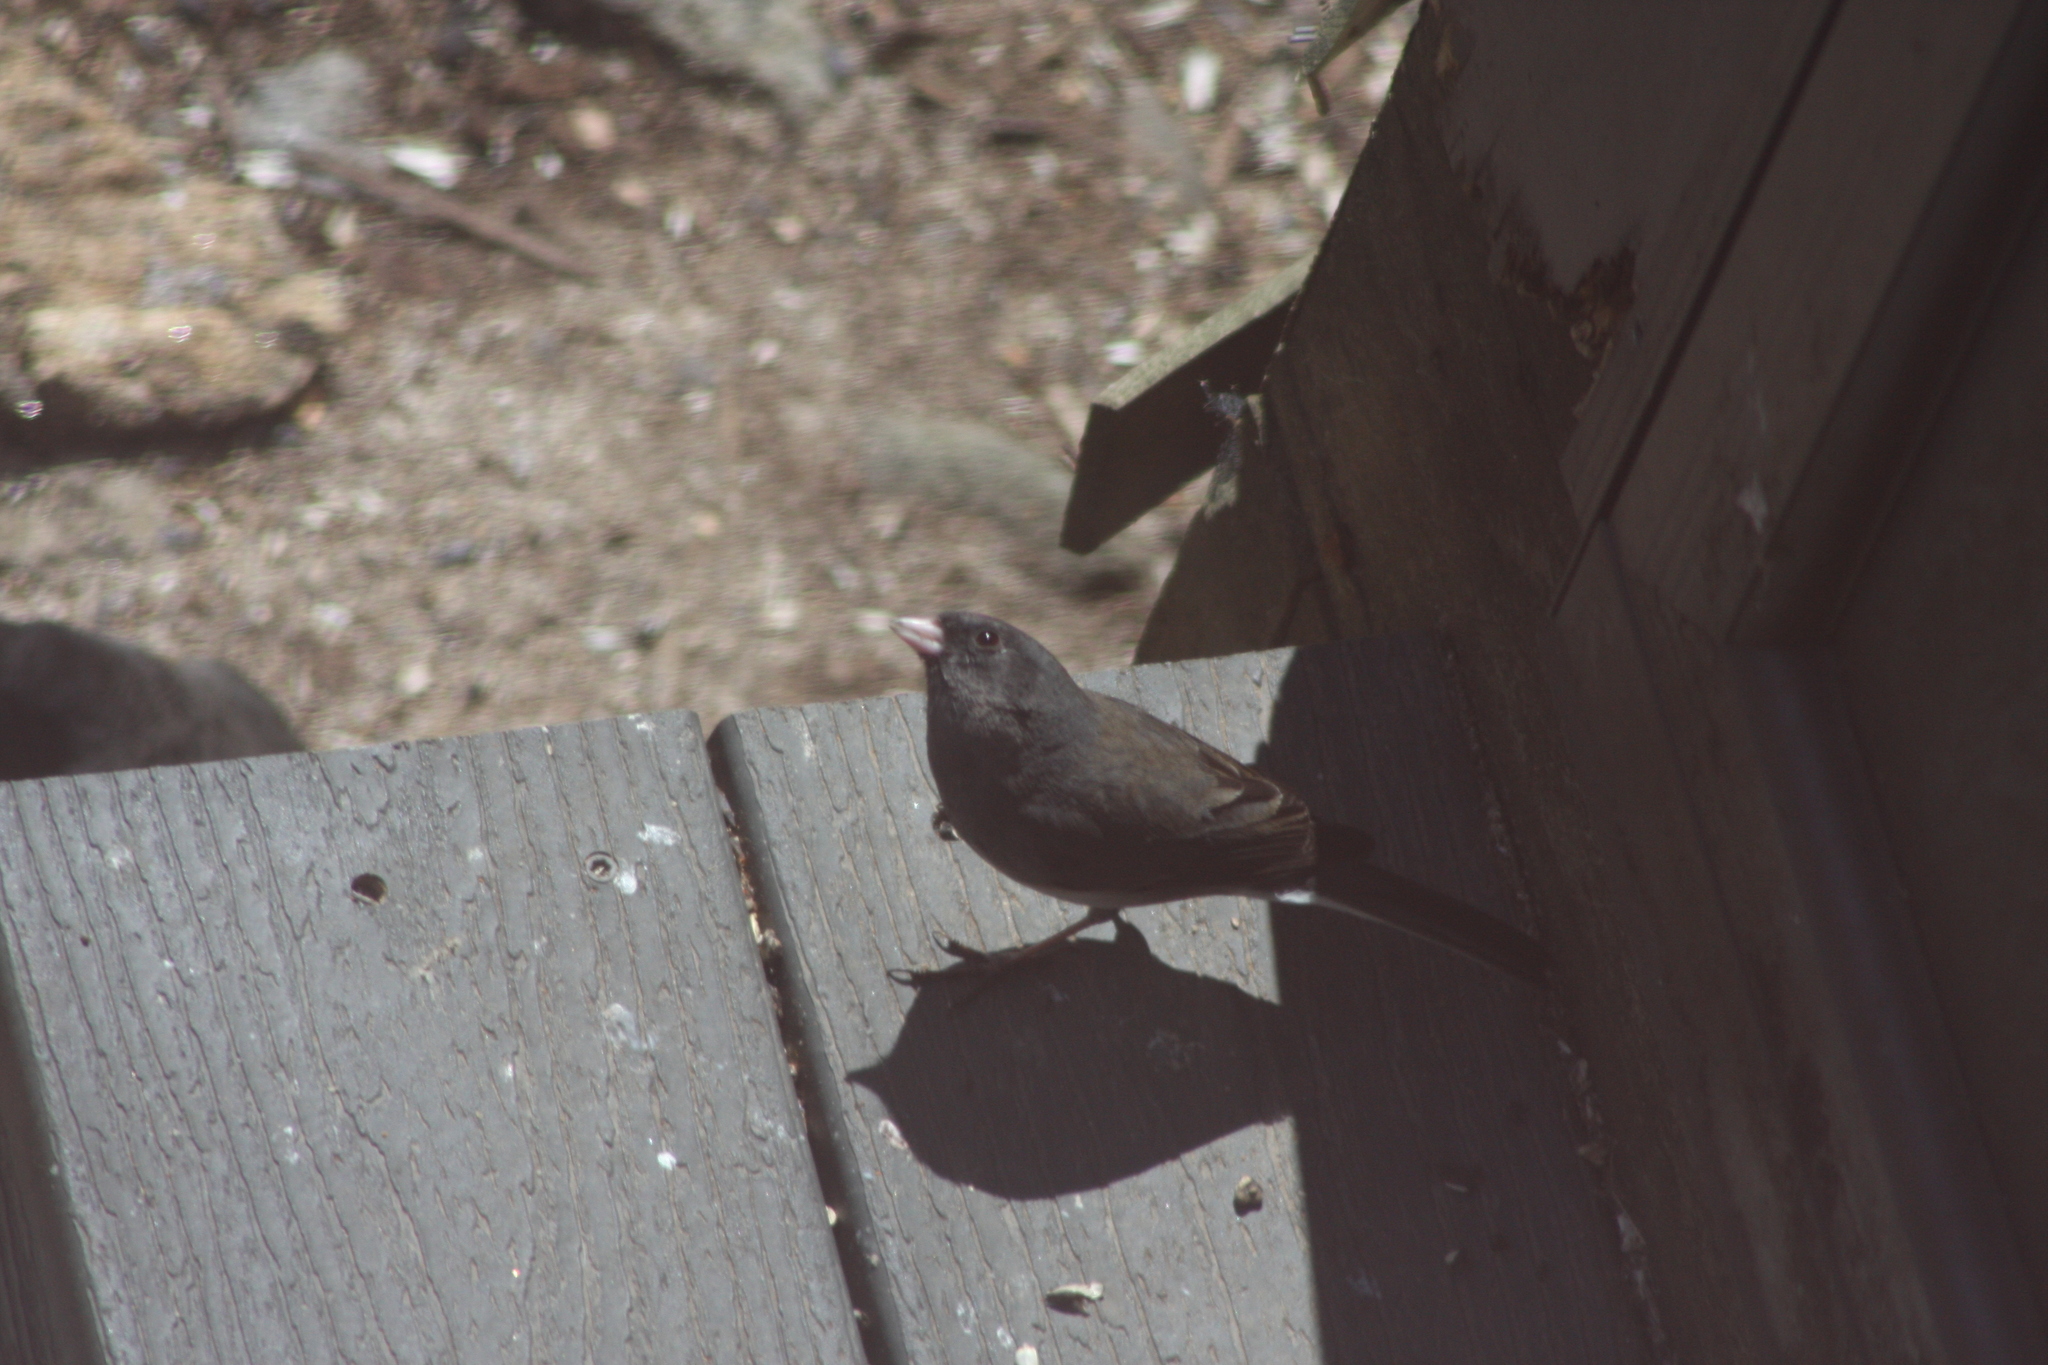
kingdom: Animalia
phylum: Chordata
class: Aves
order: Passeriformes
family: Passerellidae
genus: Junco
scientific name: Junco hyemalis
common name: Dark-eyed junco
